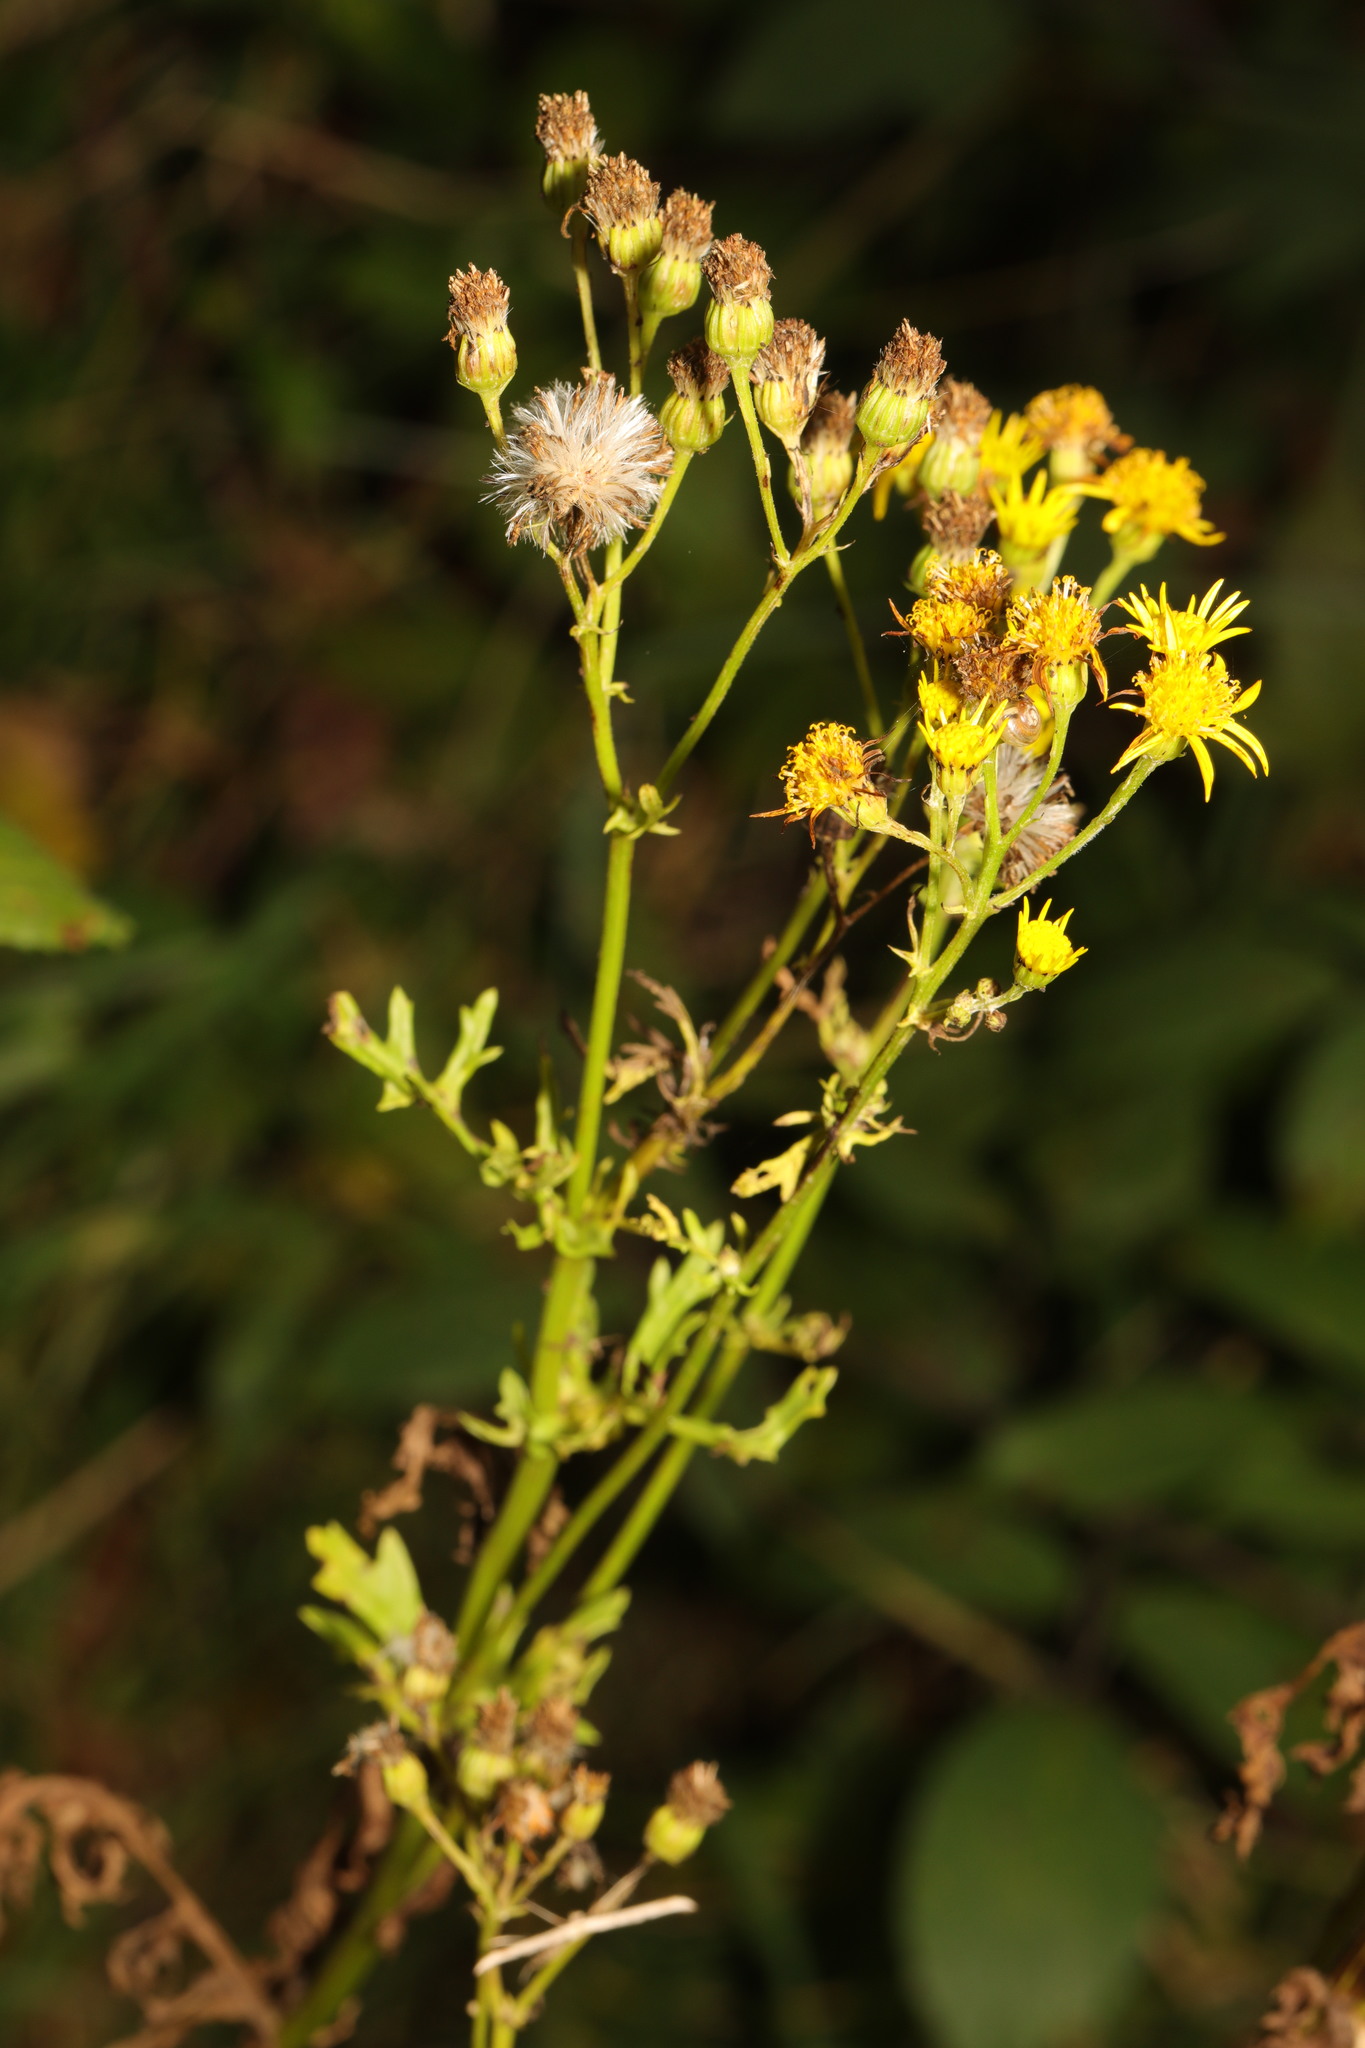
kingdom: Plantae
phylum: Tracheophyta
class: Magnoliopsida
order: Asterales
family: Asteraceae
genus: Jacobaea
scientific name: Jacobaea vulgaris
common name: Stinking willie
